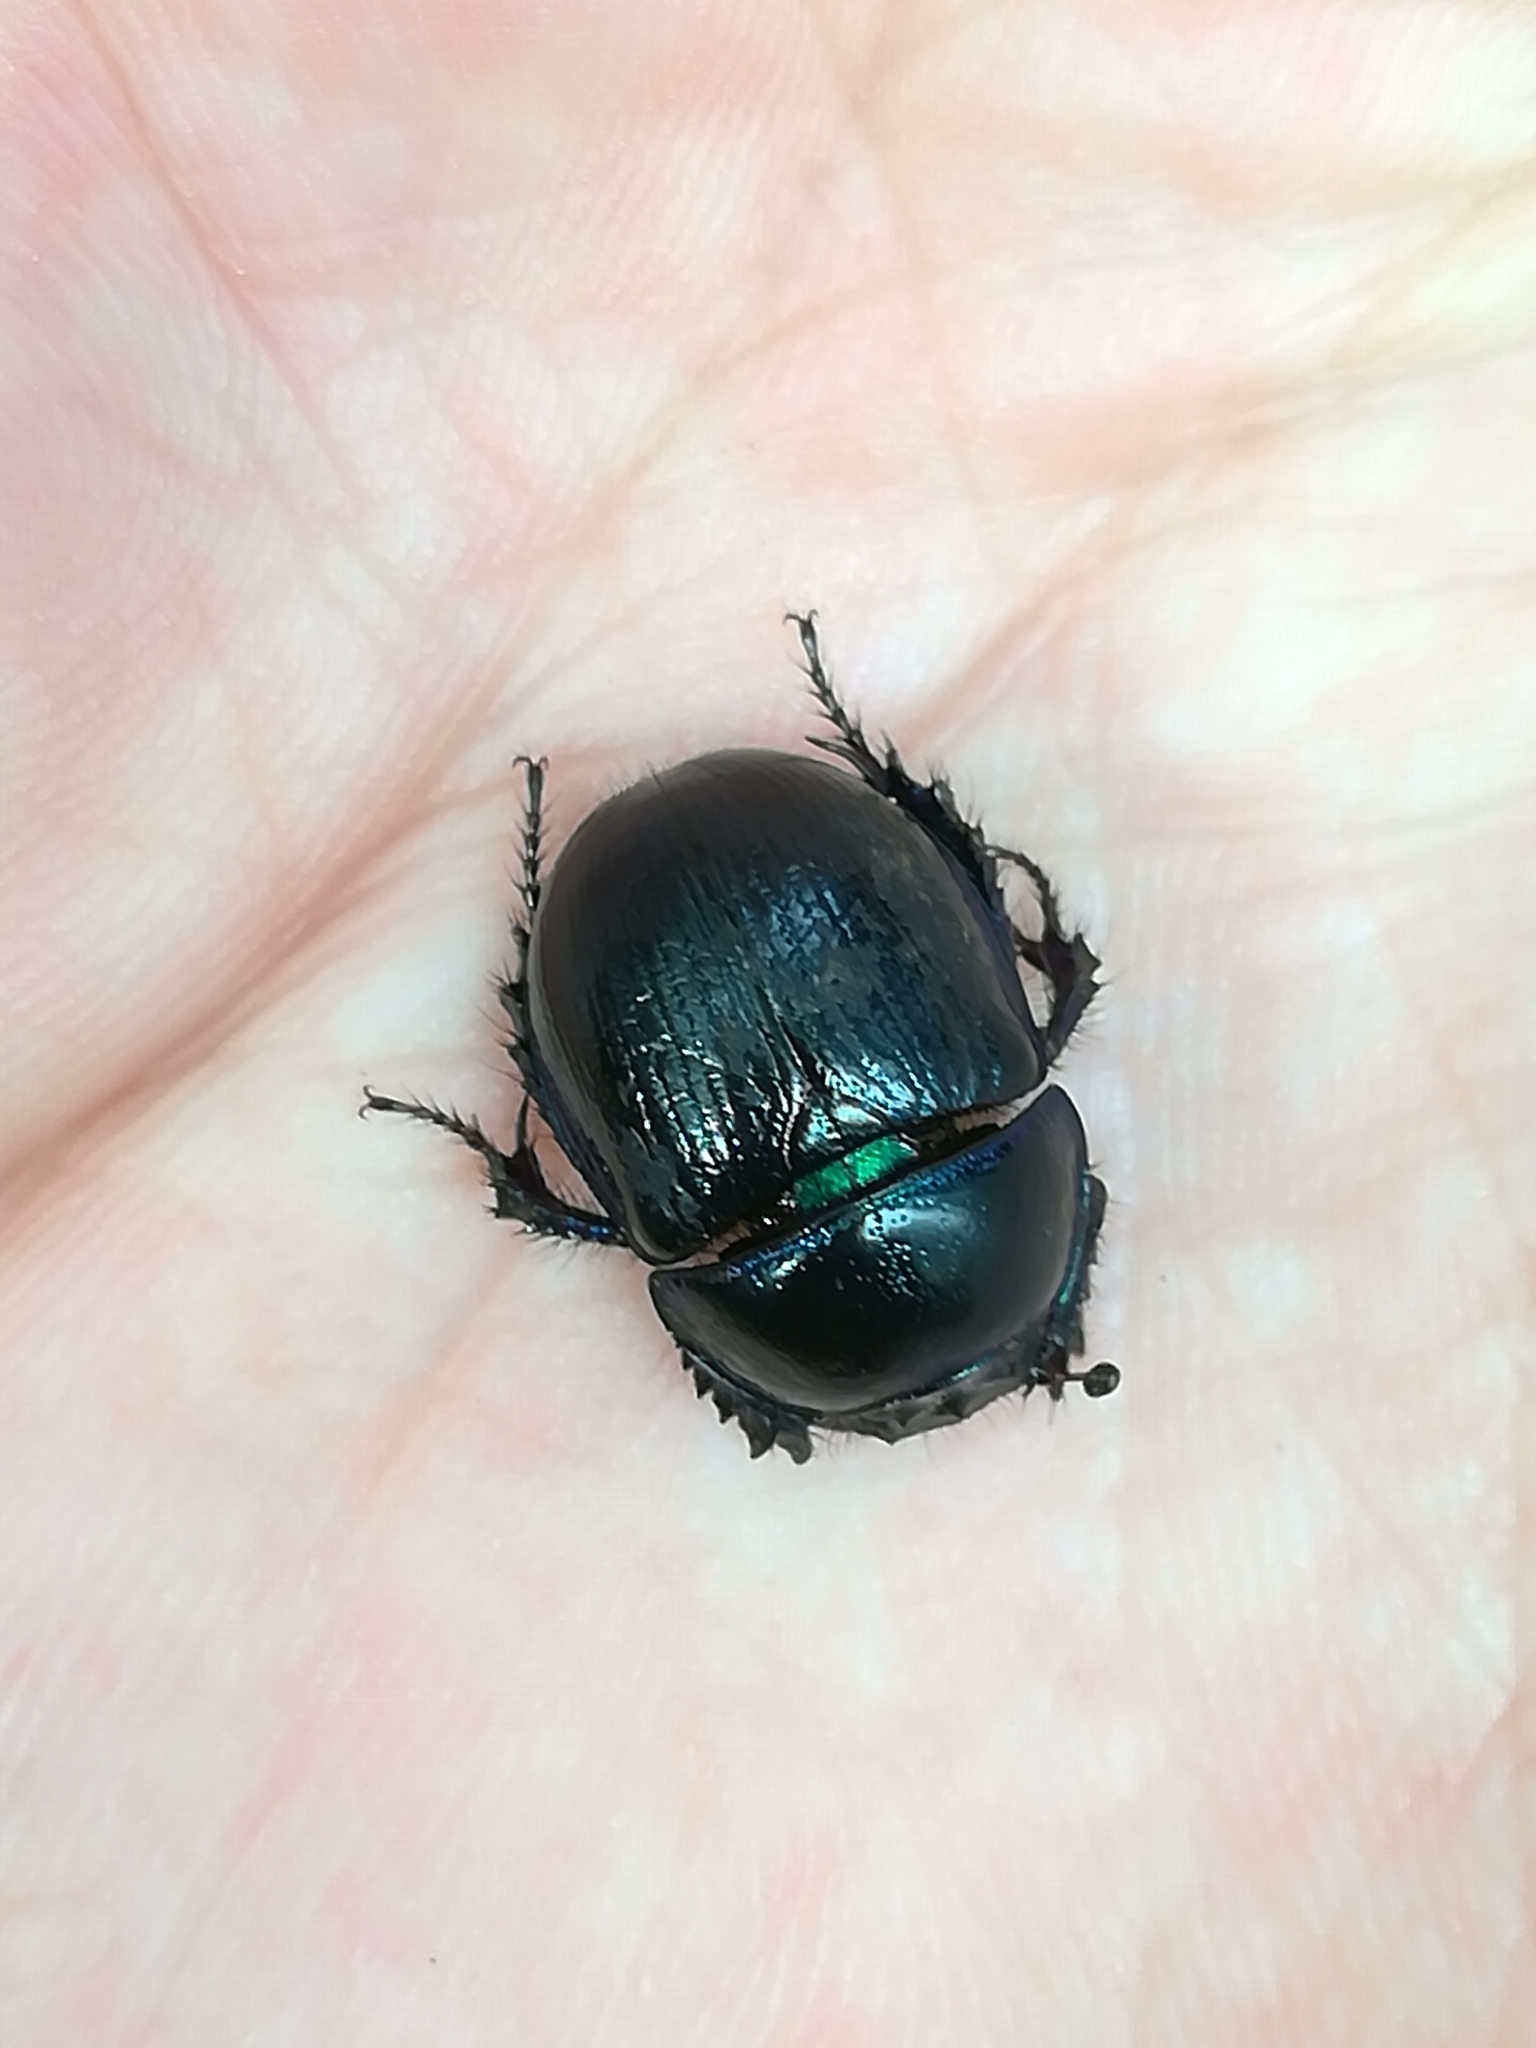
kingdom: Animalia
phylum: Arthropoda
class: Insecta
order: Coleoptera
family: Geotrupidae
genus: Anoplotrupes
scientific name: Anoplotrupes stercorosus
